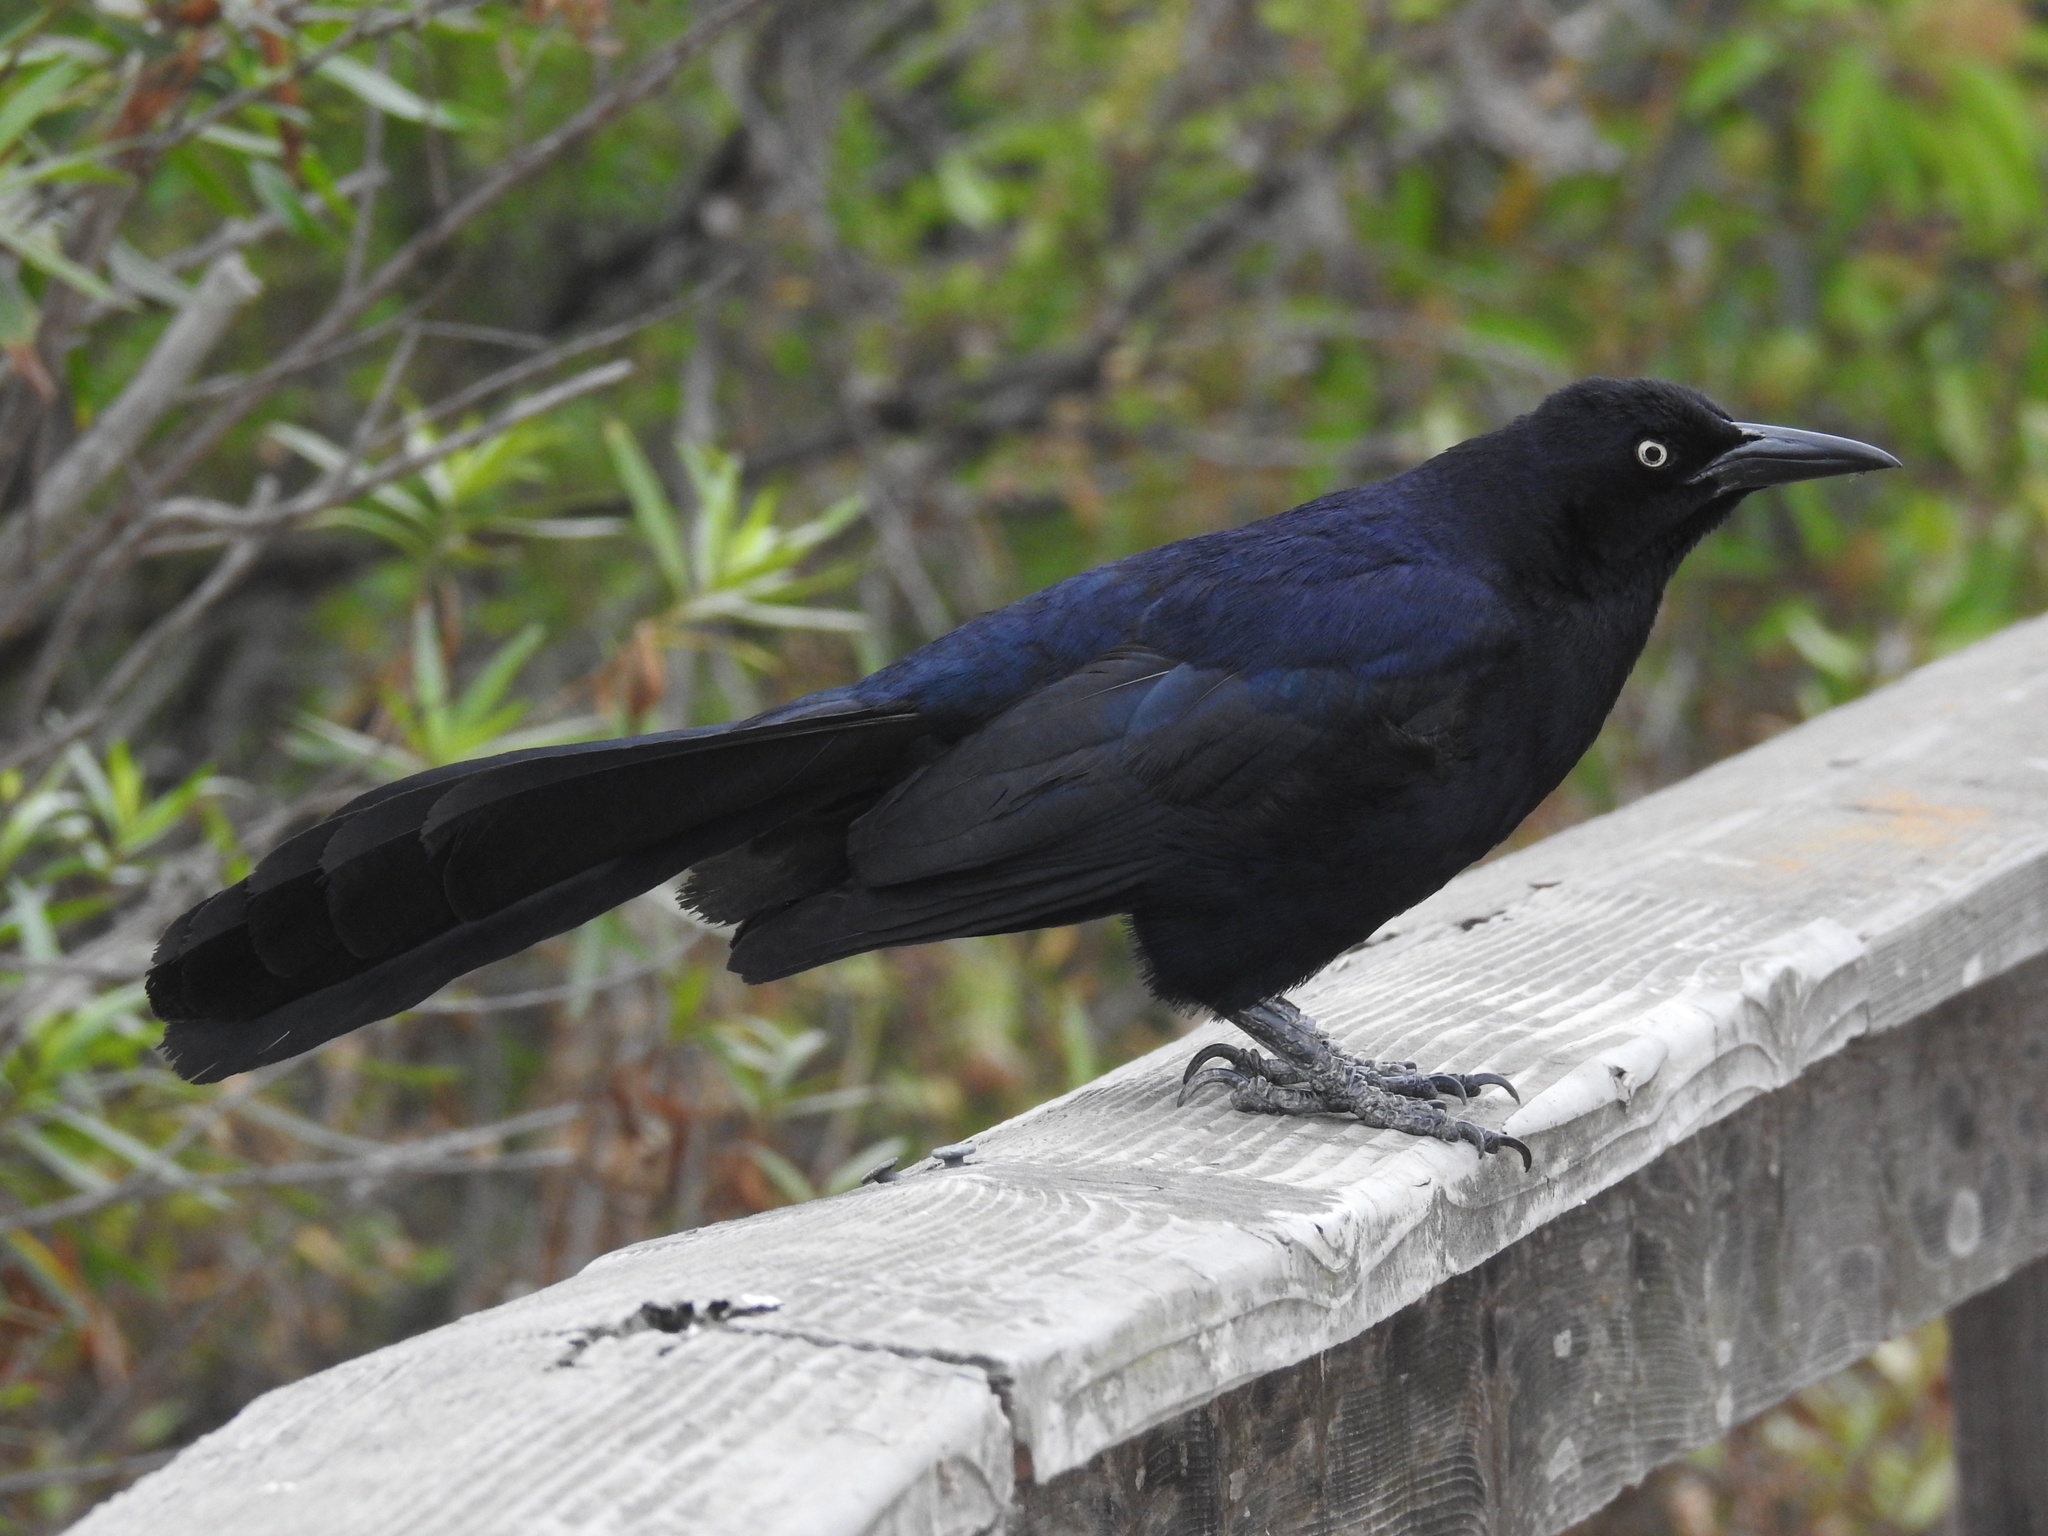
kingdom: Animalia
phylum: Chordata
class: Aves
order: Passeriformes
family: Icteridae
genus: Quiscalus
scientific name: Quiscalus mexicanus
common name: Great-tailed grackle
